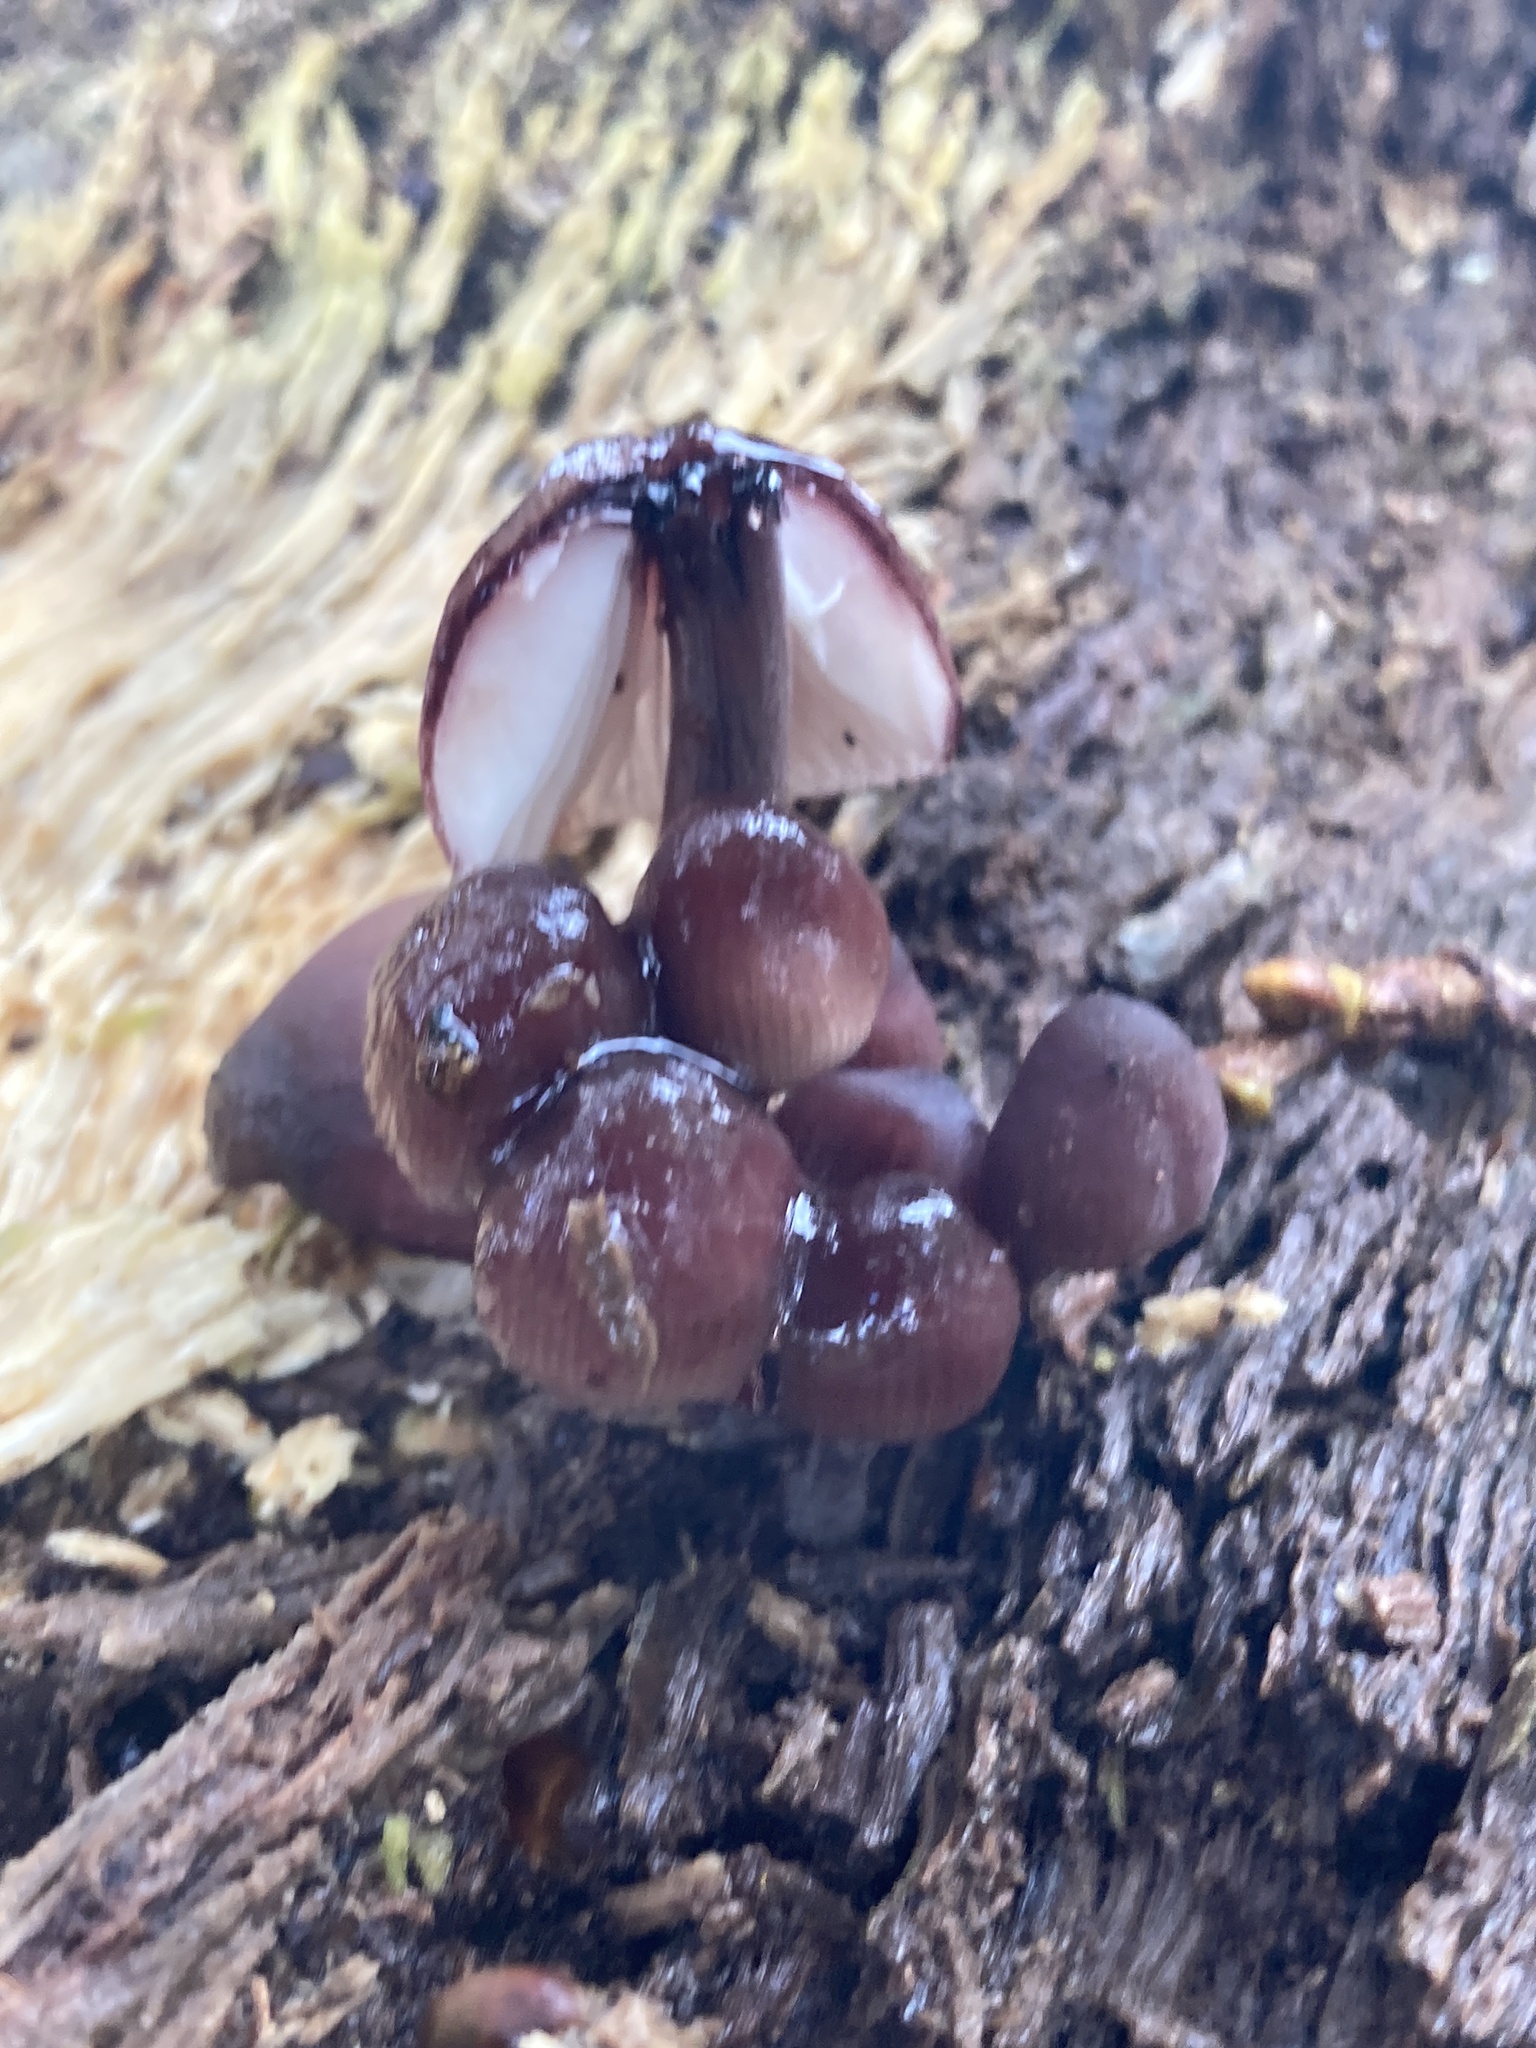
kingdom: Fungi
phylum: Basidiomycota
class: Agaricomycetes
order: Agaricales
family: Mycenaceae
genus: Mycena
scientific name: Mycena haematopus
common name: Burgundydrop bonnet
